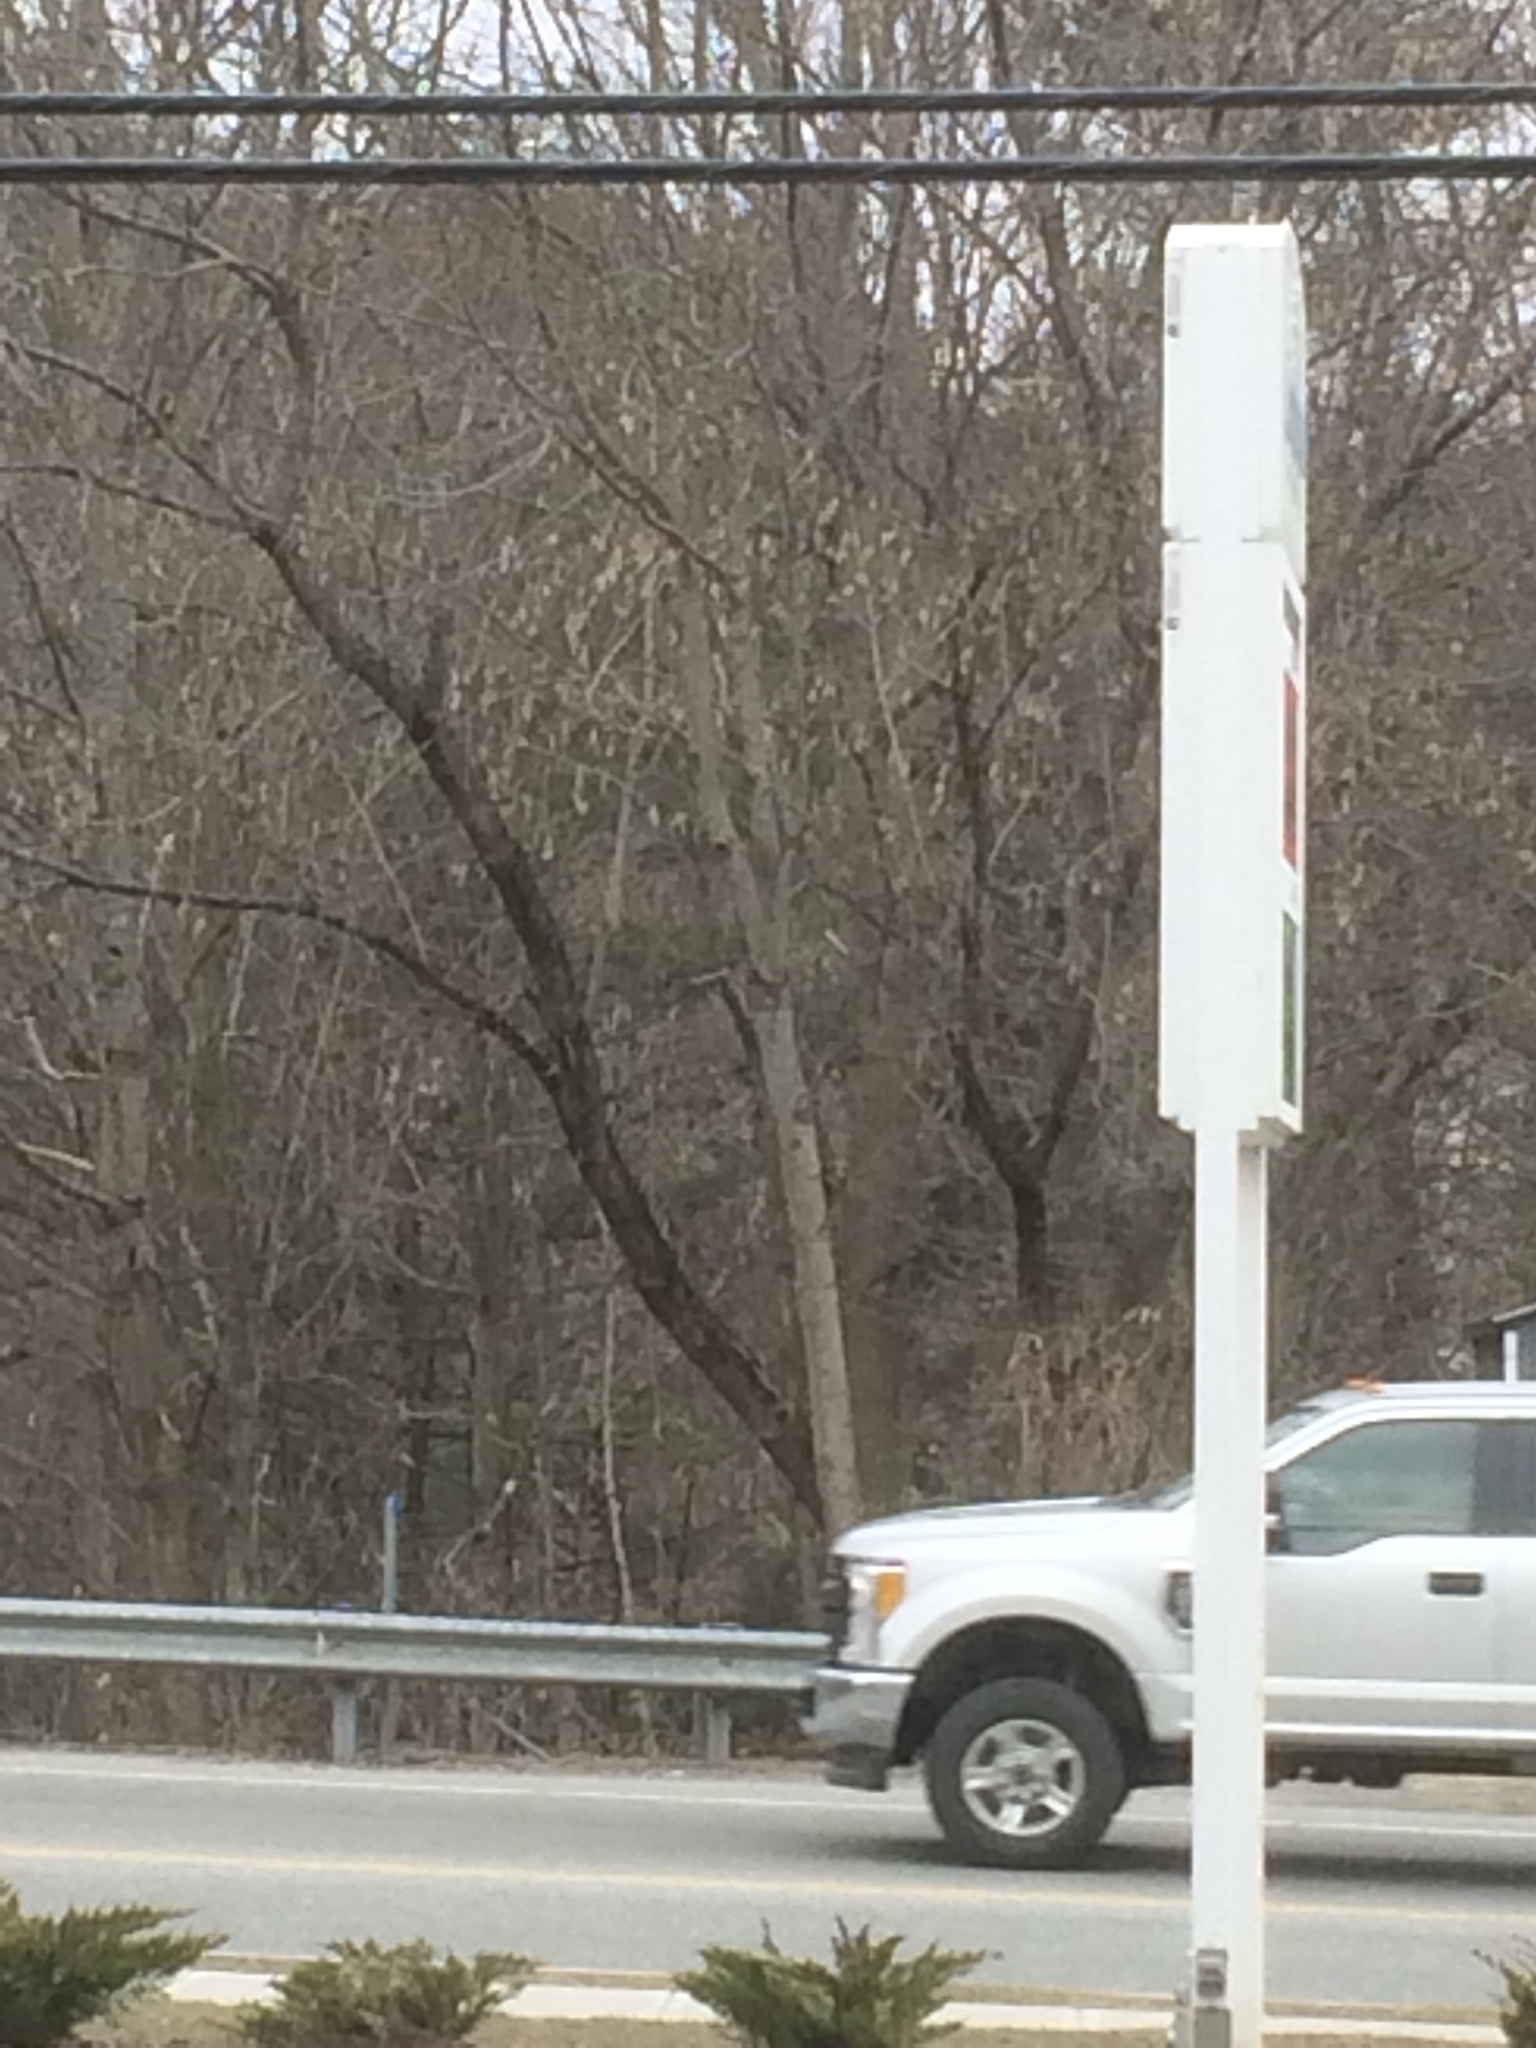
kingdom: Plantae
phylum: Tracheophyta
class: Magnoliopsida
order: Sapindales
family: Sapindaceae
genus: Acer
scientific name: Acer negundo
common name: Ashleaf maple
